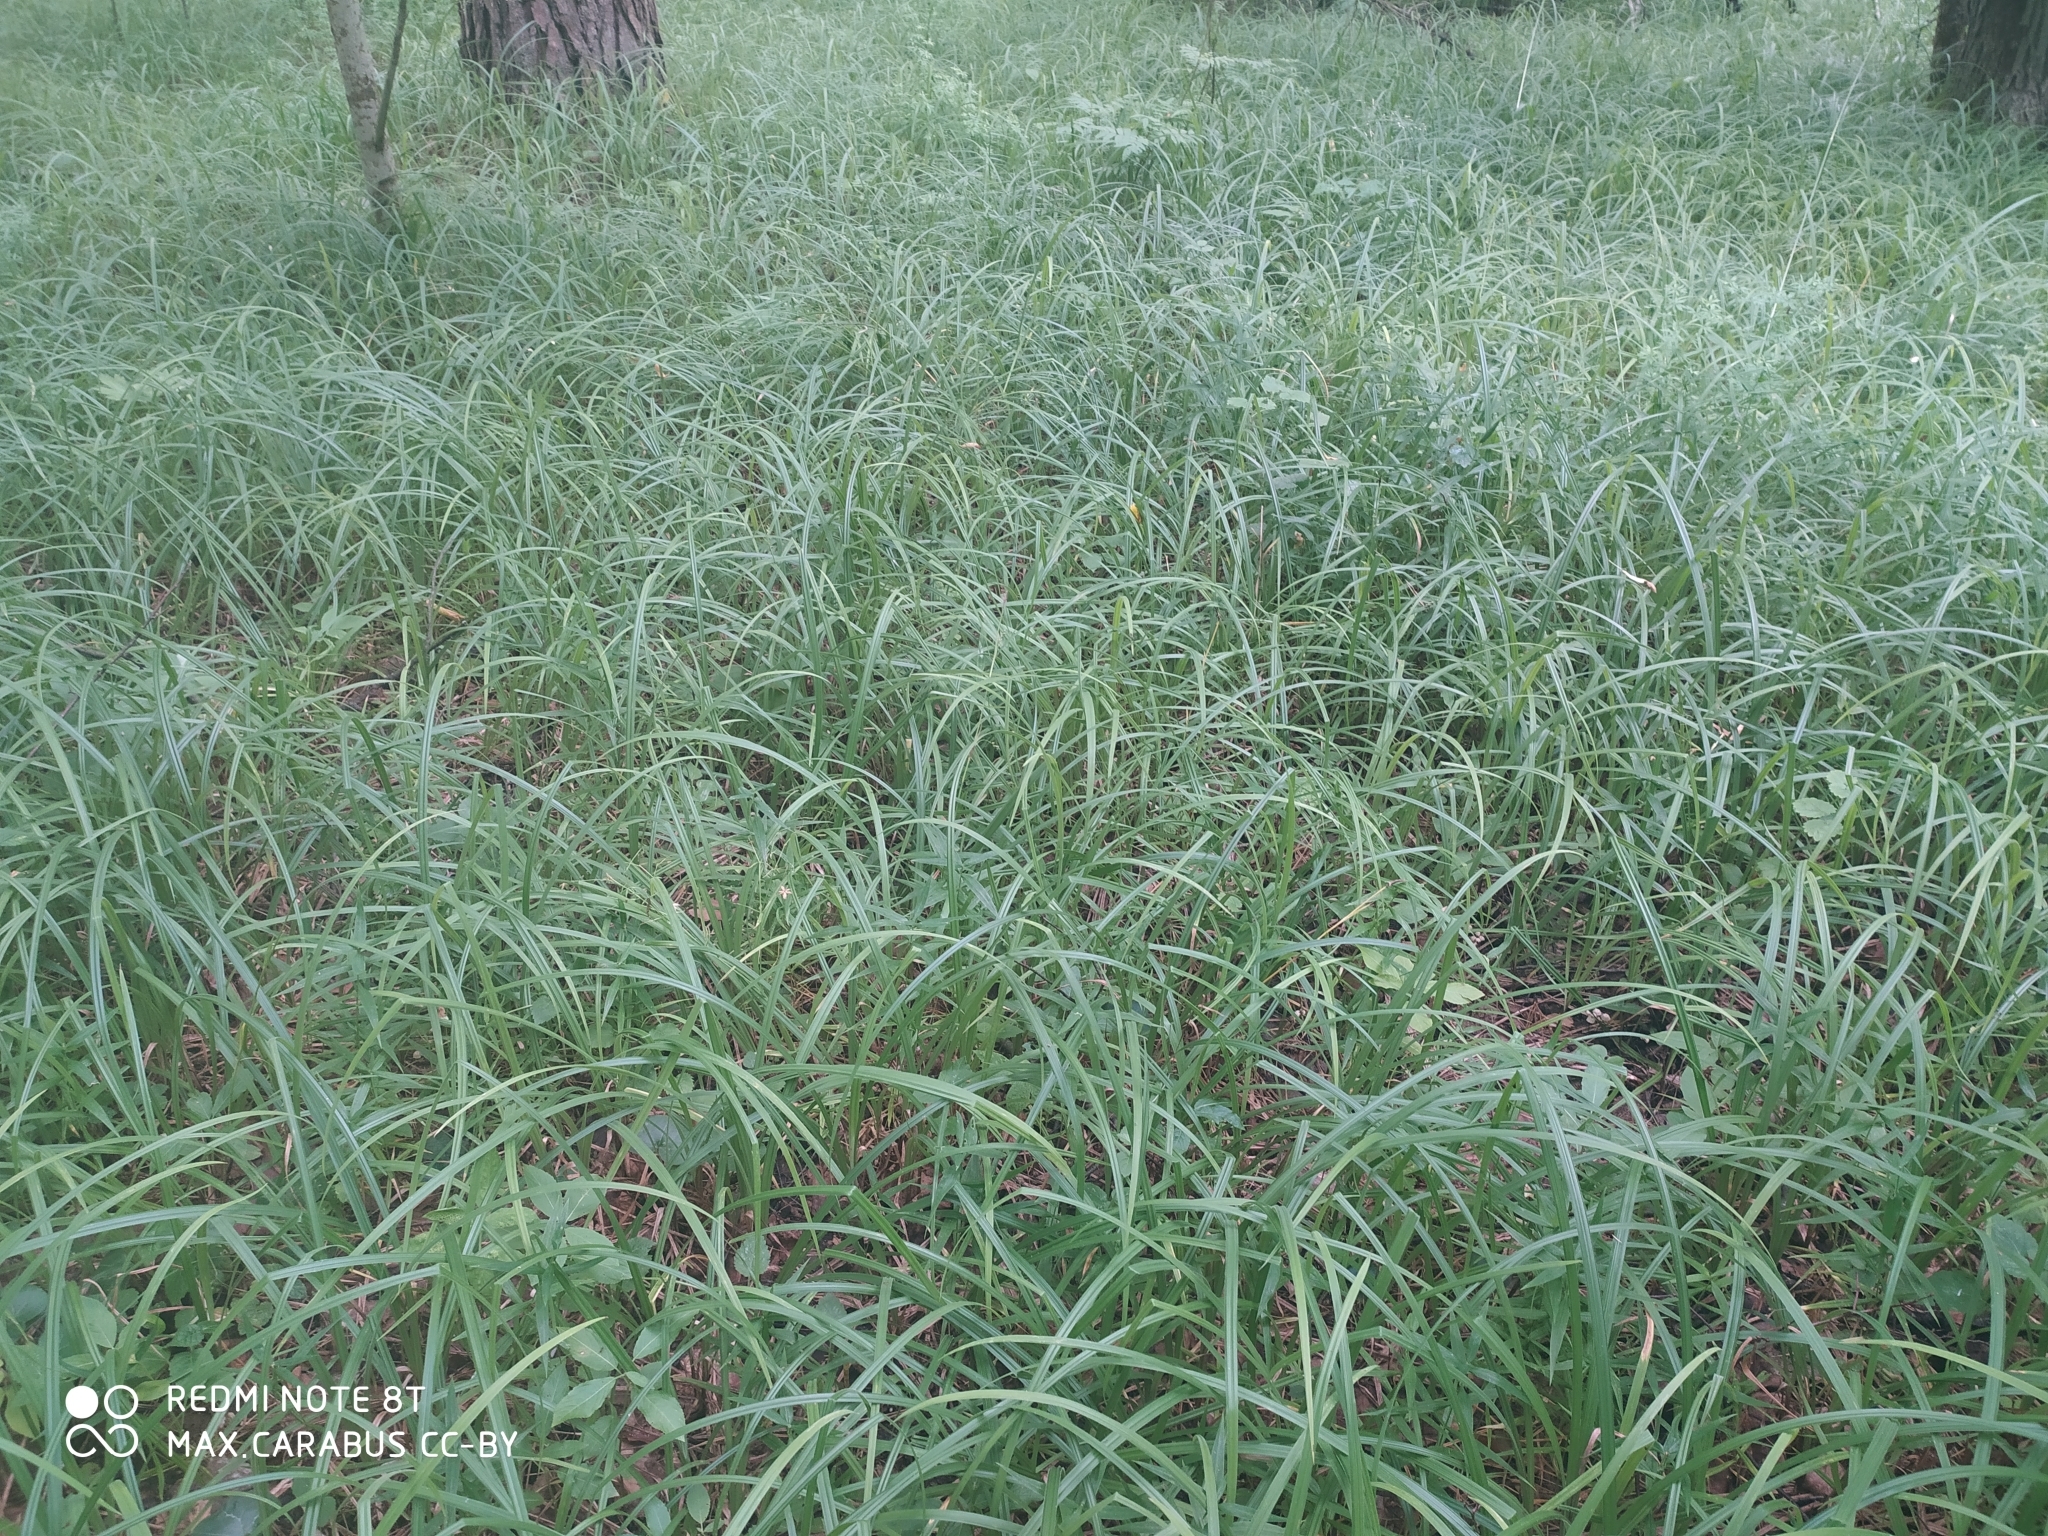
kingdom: Plantae
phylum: Tracheophyta
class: Liliopsida
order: Poales
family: Cyperaceae
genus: Carex
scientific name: Carex pilosa
